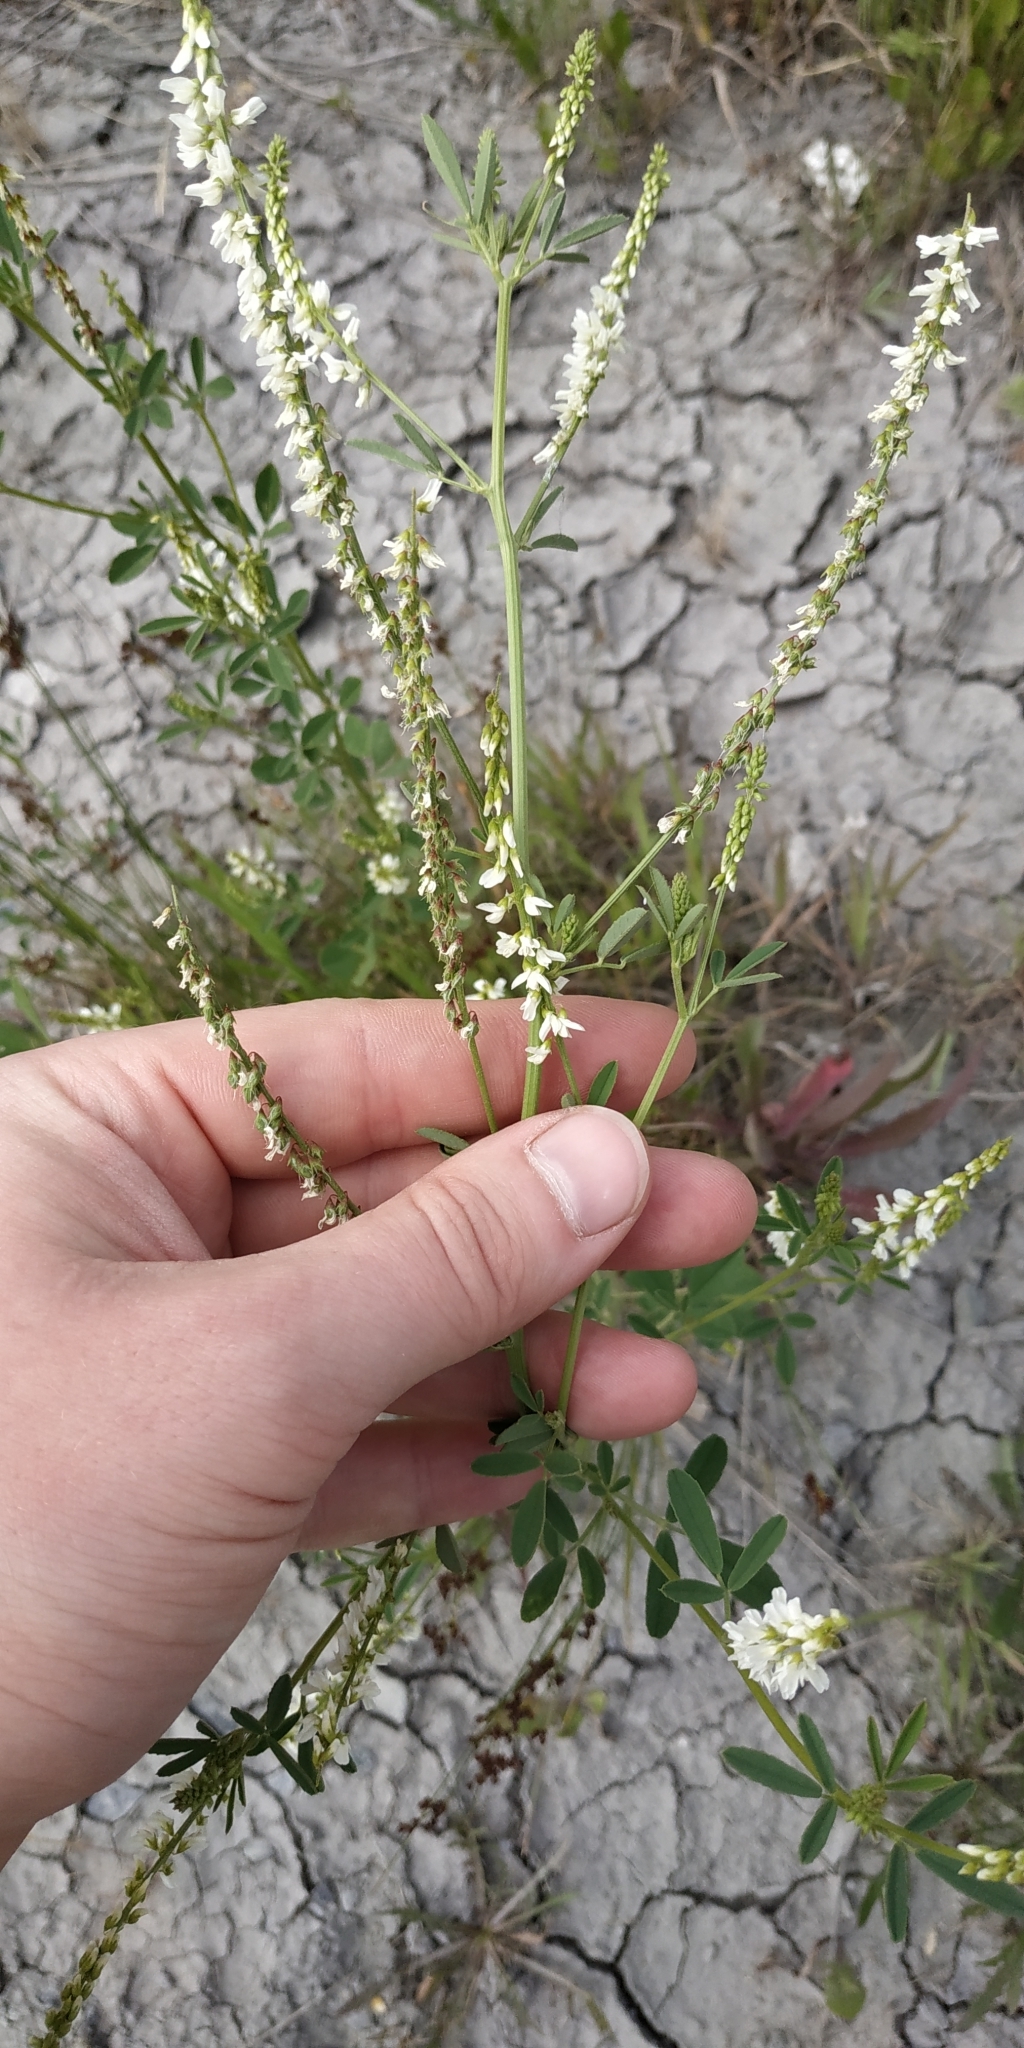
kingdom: Plantae
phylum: Tracheophyta
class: Magnoliopsida
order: Fabales
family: Fabaceae
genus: Melilotus
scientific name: Melilotus albus
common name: White melilot
